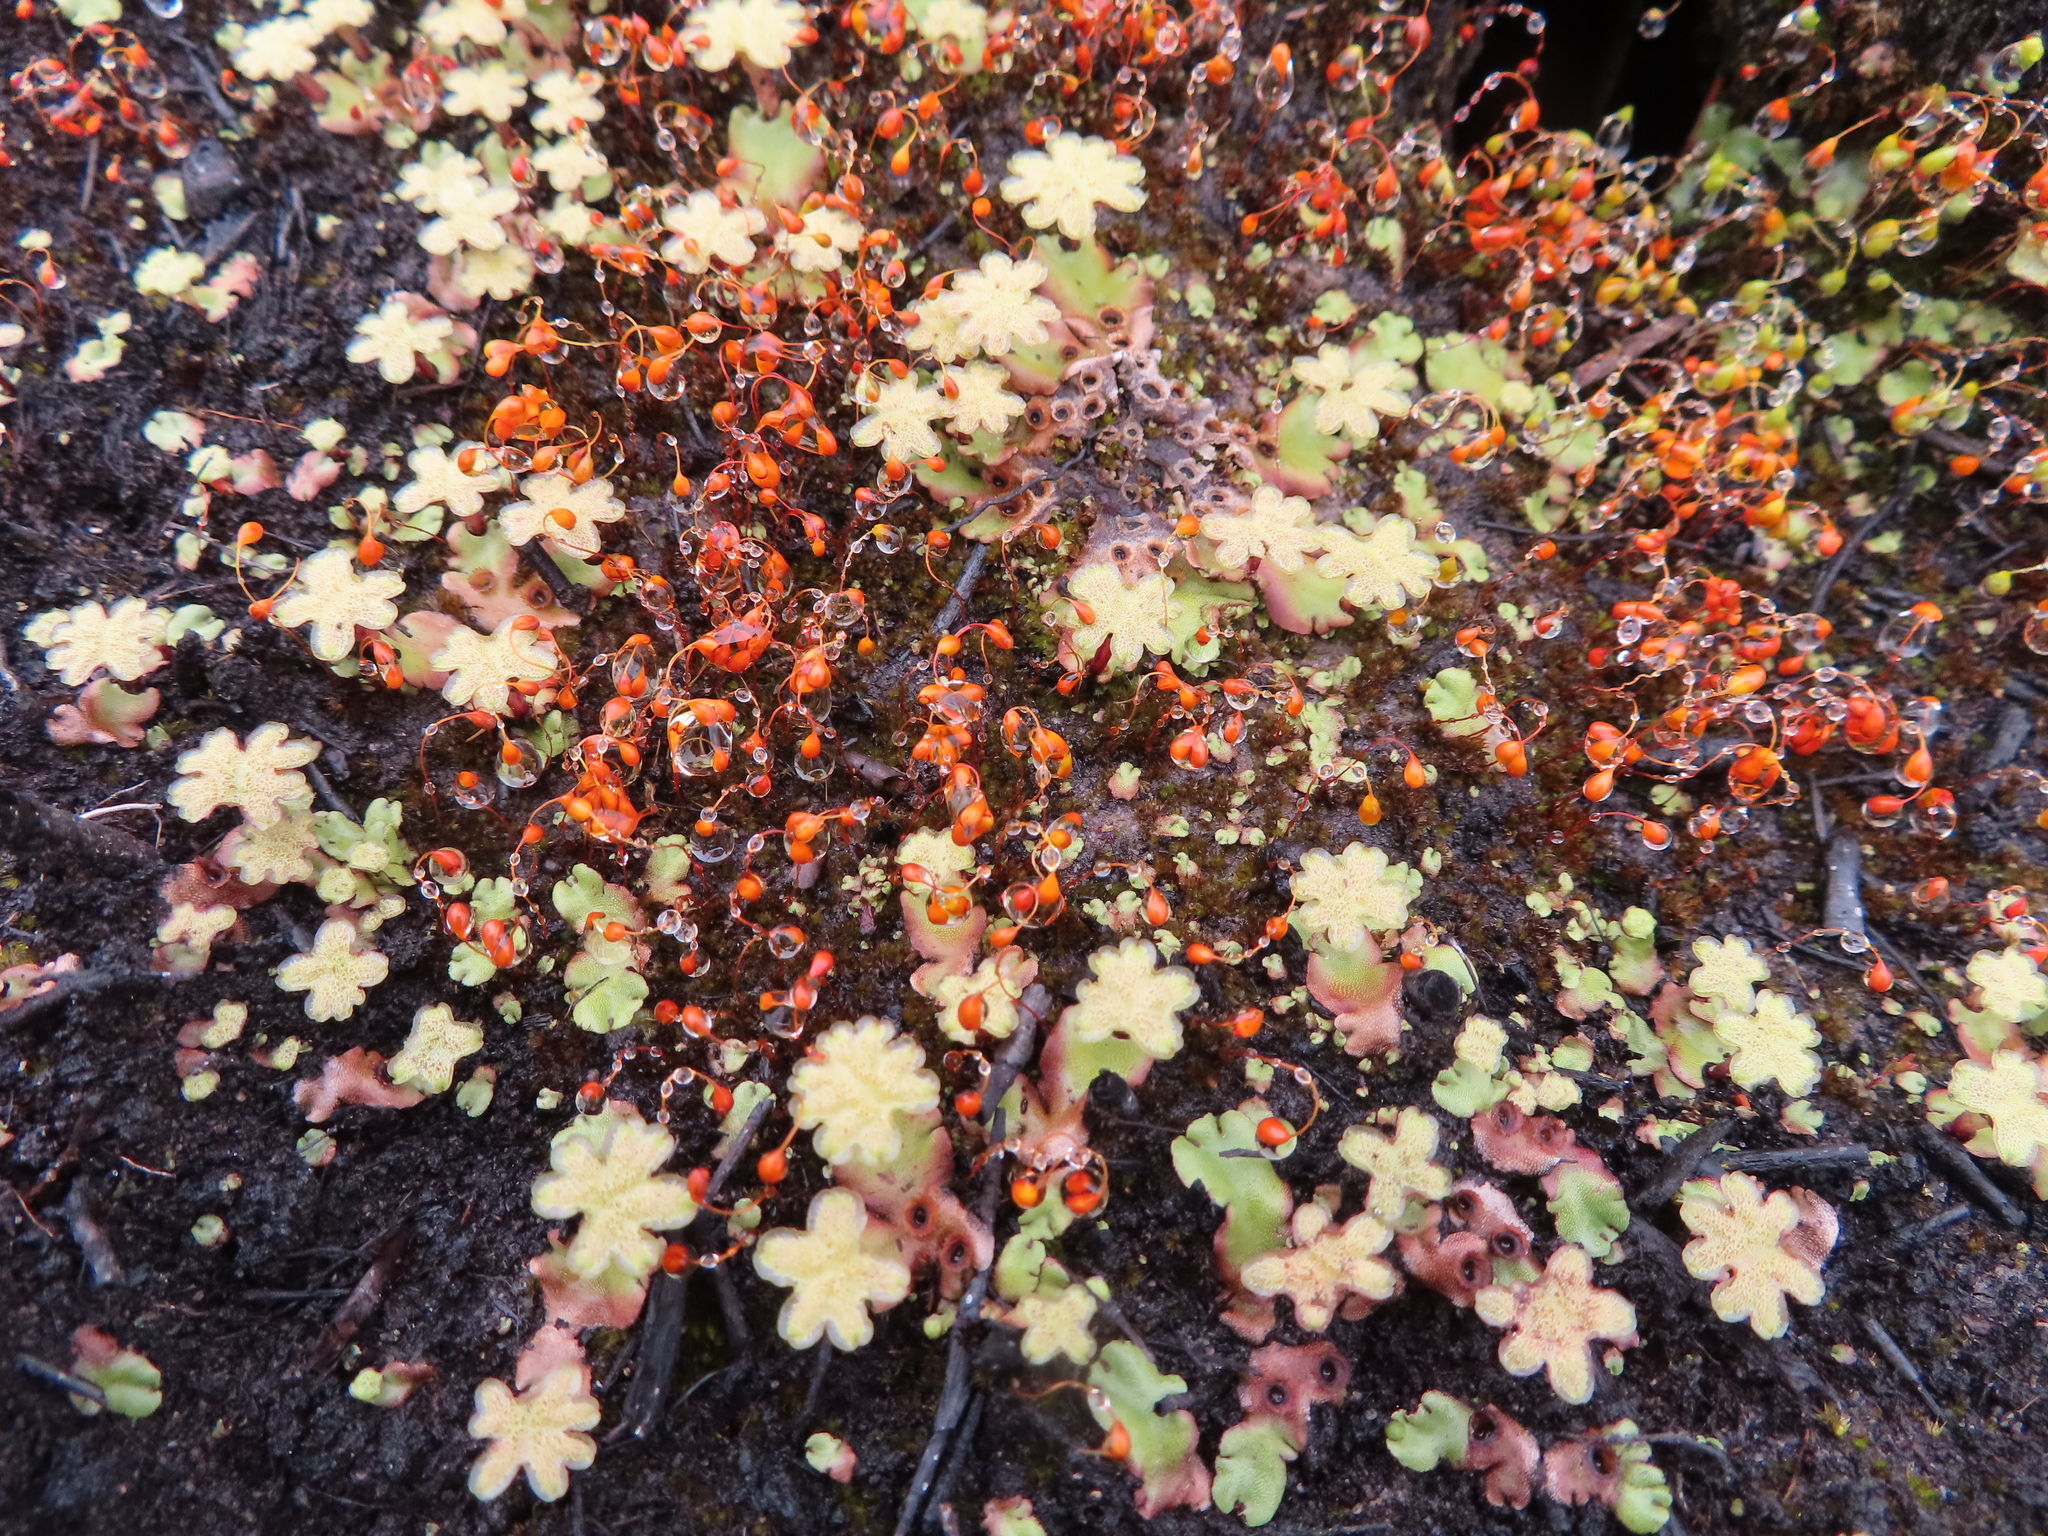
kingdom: Plantae
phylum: Marchantiophyta
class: Marchantiopsida
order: Marchantiales
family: Marchantiaceae
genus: Marchantia
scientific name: Marchantia berteroana
